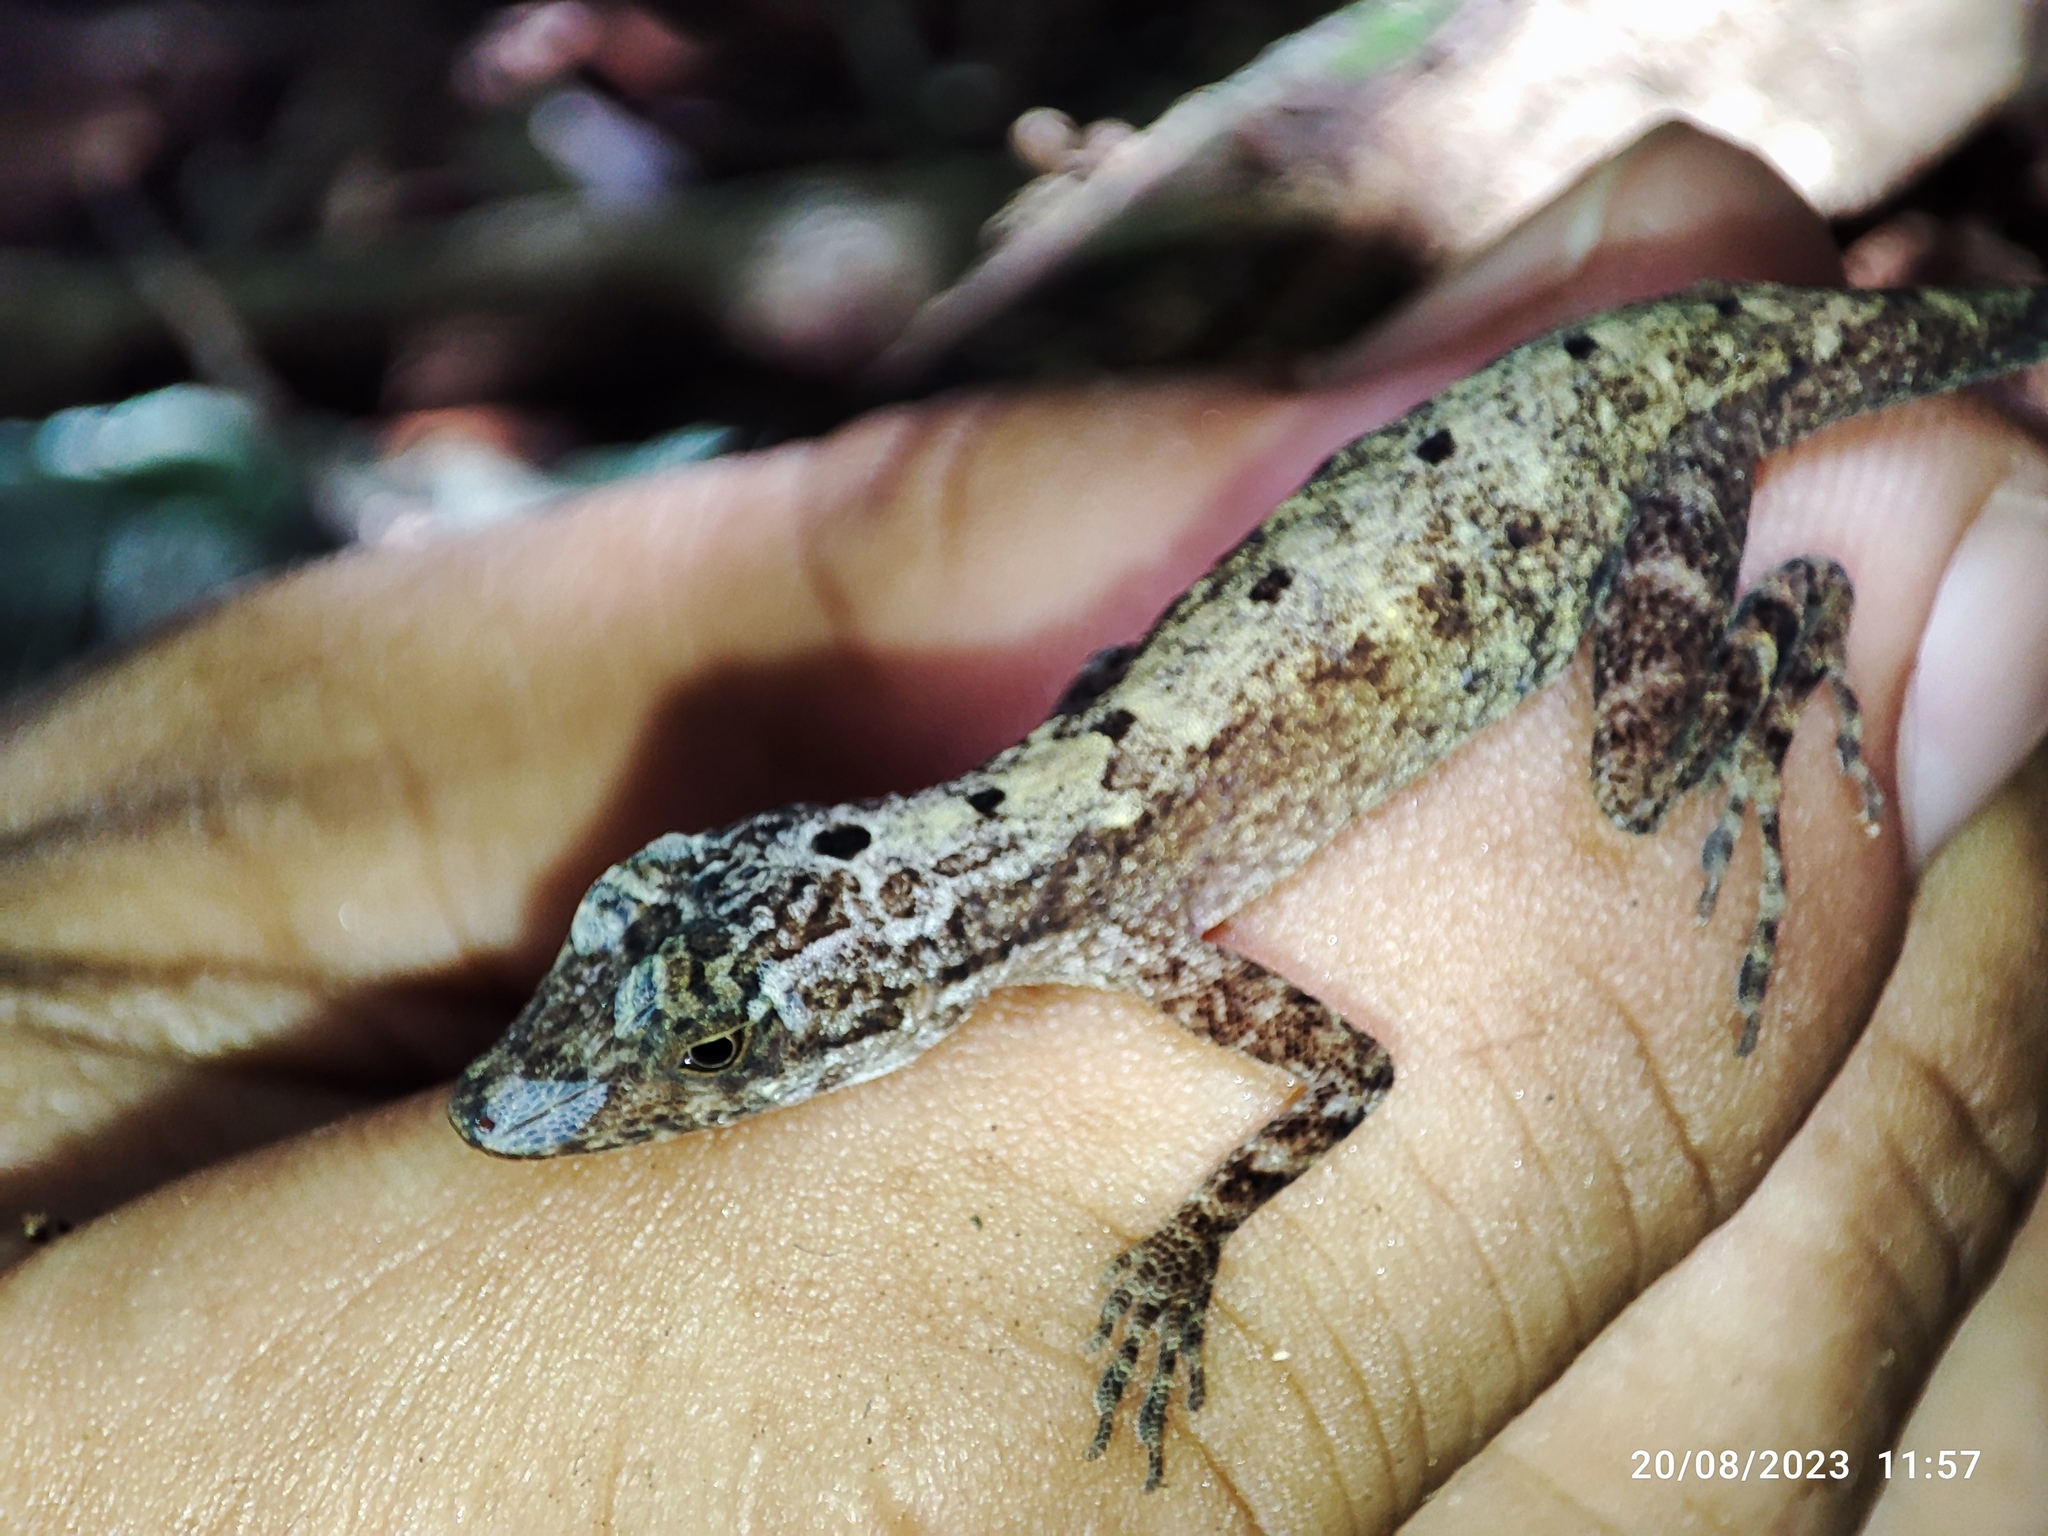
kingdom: Animalia
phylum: Chordata
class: Squamata
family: Dactyloidae
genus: Anolis
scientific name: Anolis rodriguezii
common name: Middle american smooth anole
